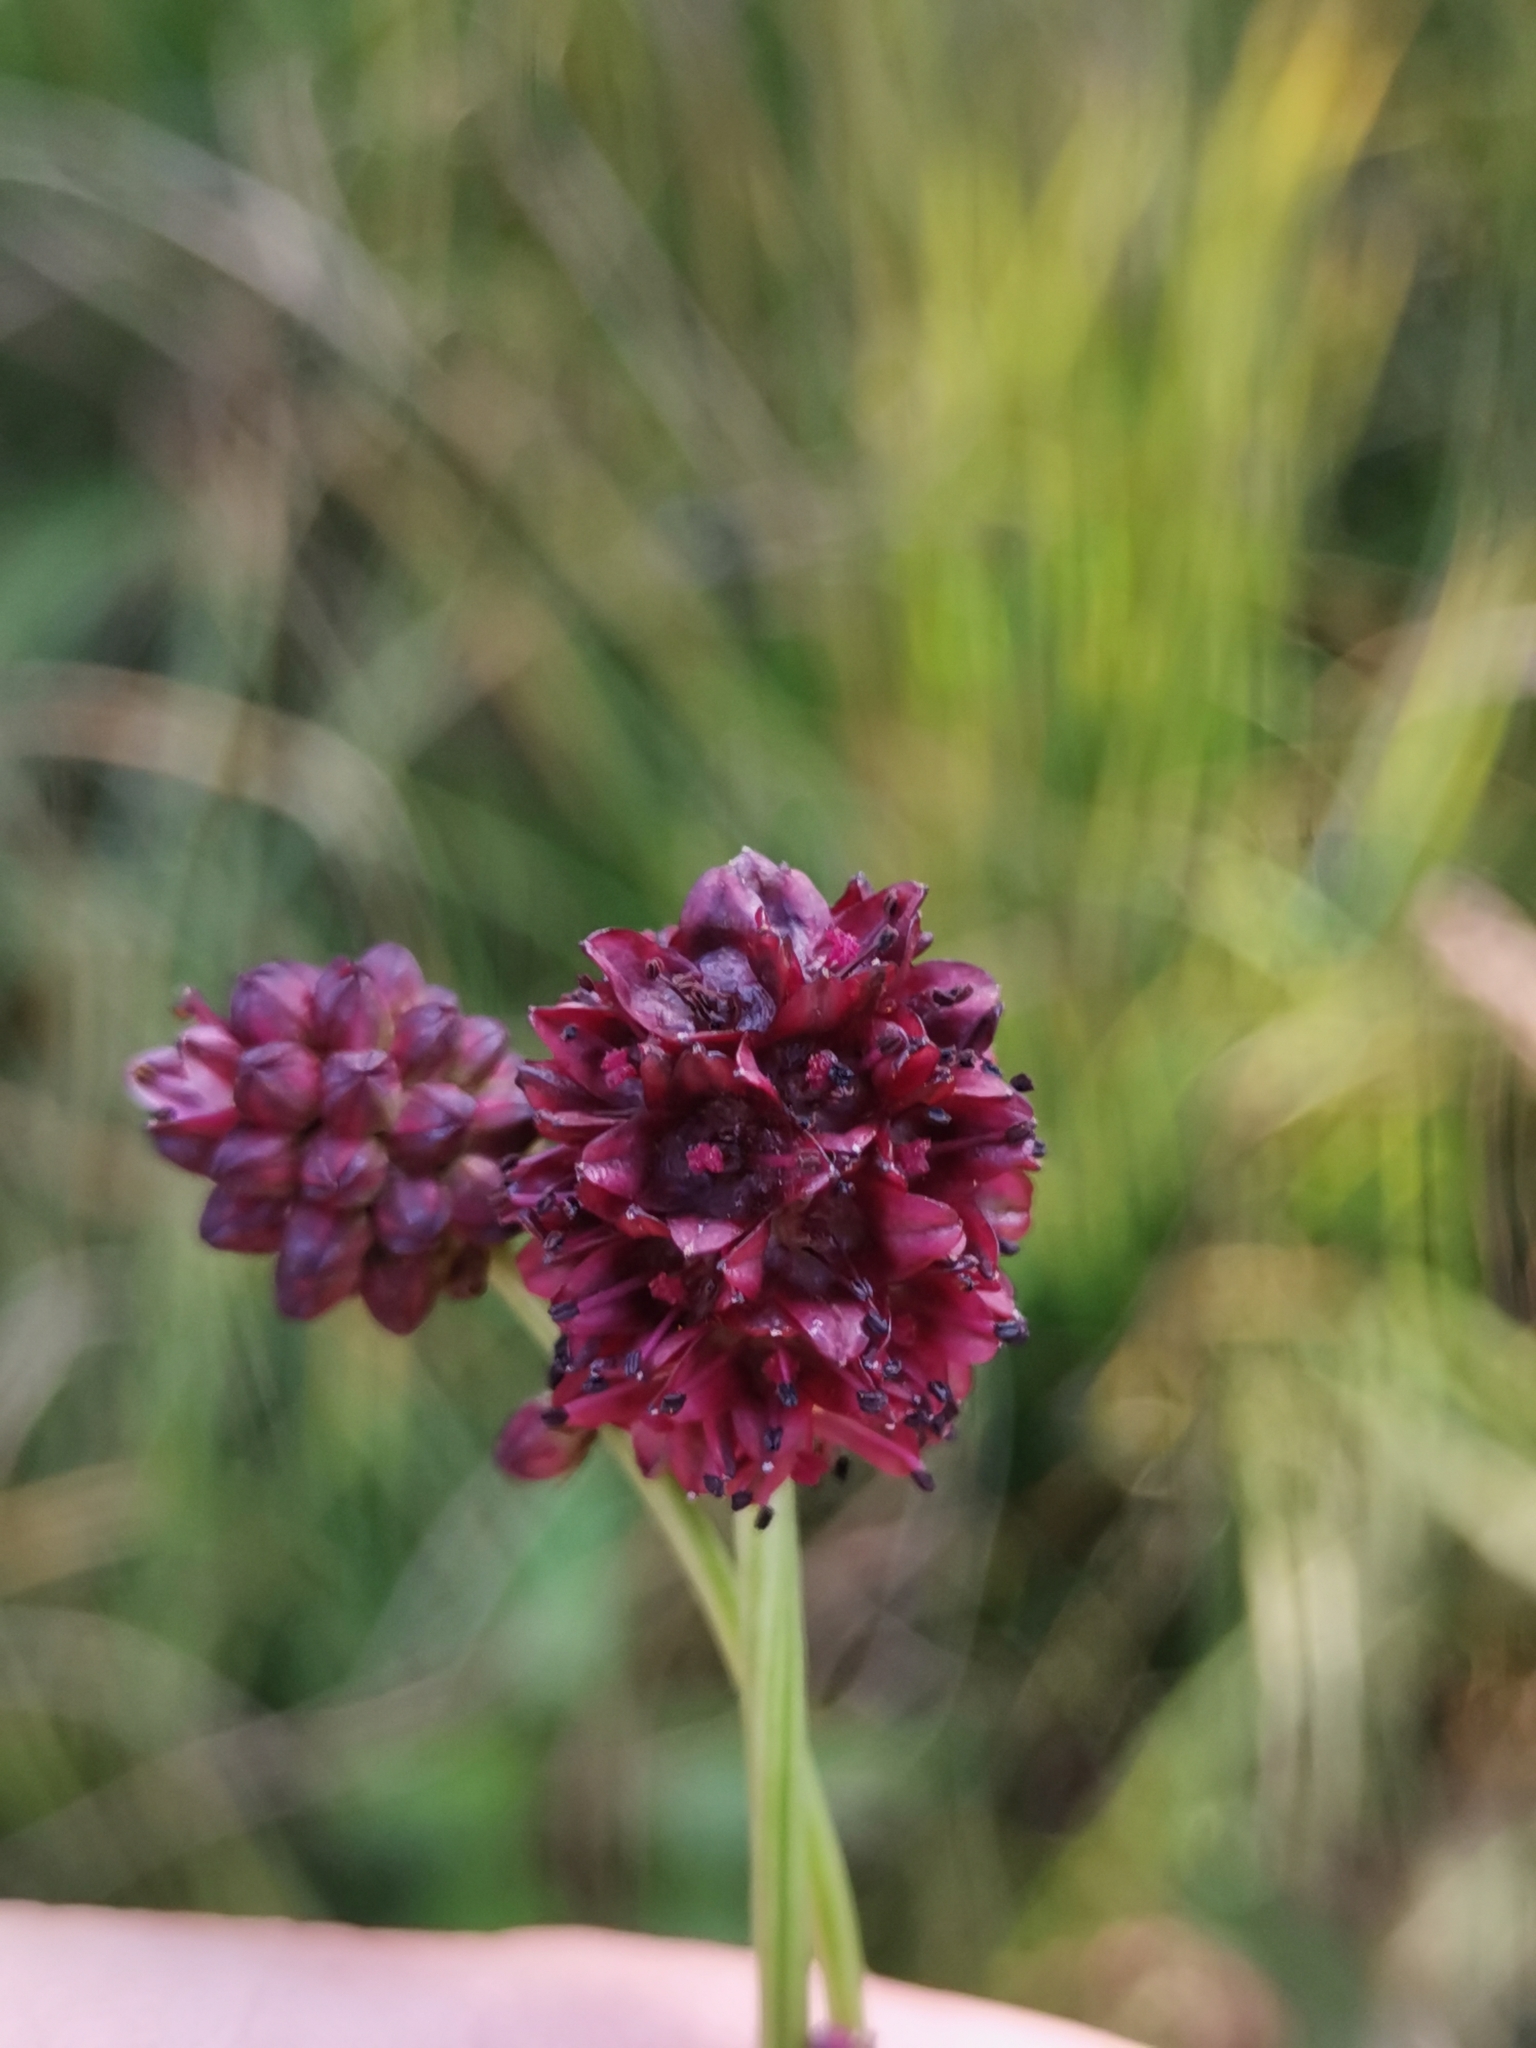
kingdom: Plantae
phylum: Tracheophyta
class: Magnoliopsida
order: Rosales
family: Rosaceae
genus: Sanguisorba
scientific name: Sanguisorba officinalis
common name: Great burnet
